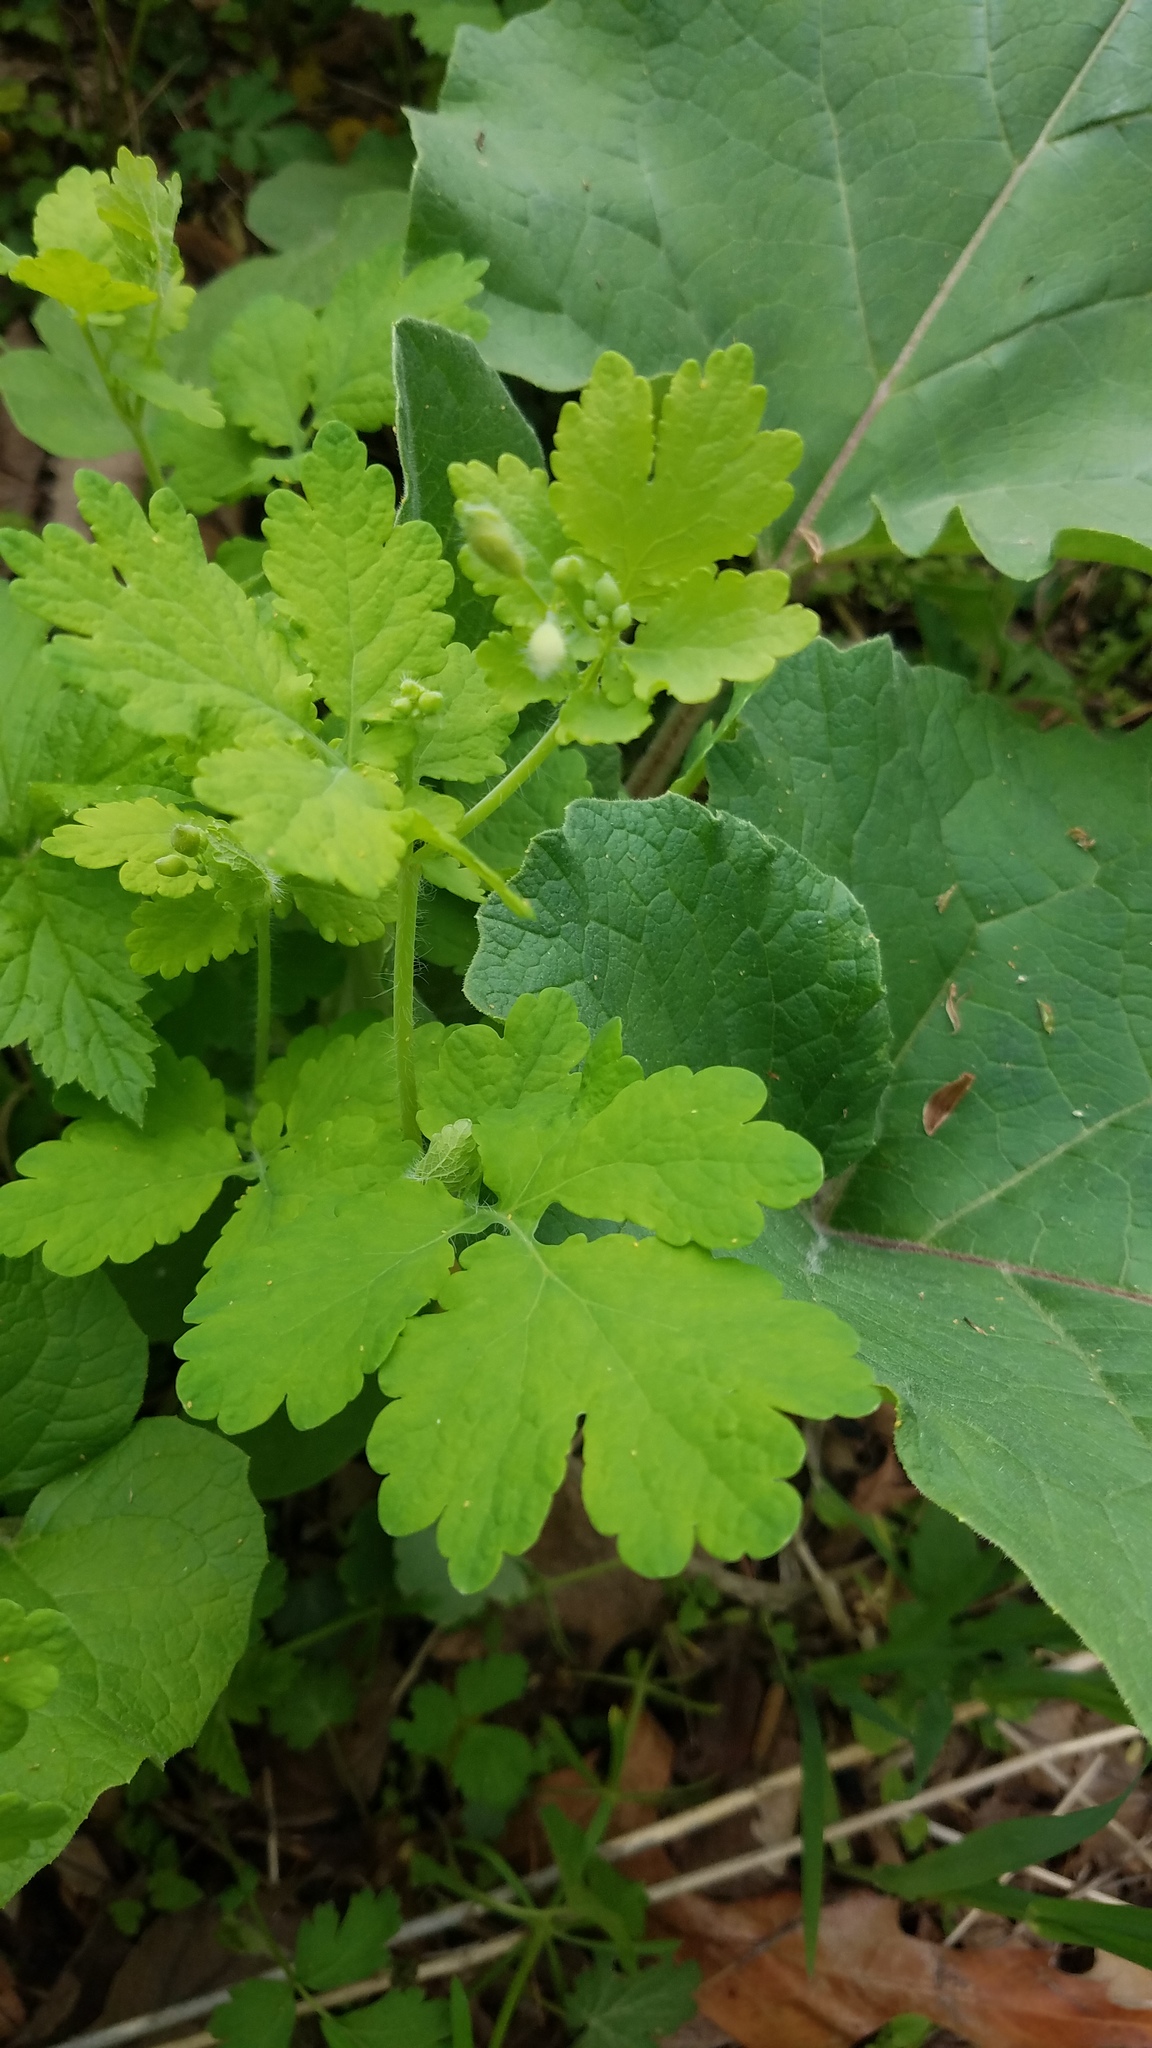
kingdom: Plantae
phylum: Tracheophyta
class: Magnoliopsida
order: Ranunculales
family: Papaveraceae
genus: Chelidonium
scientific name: Chelidonium majus
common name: Greater celandine
